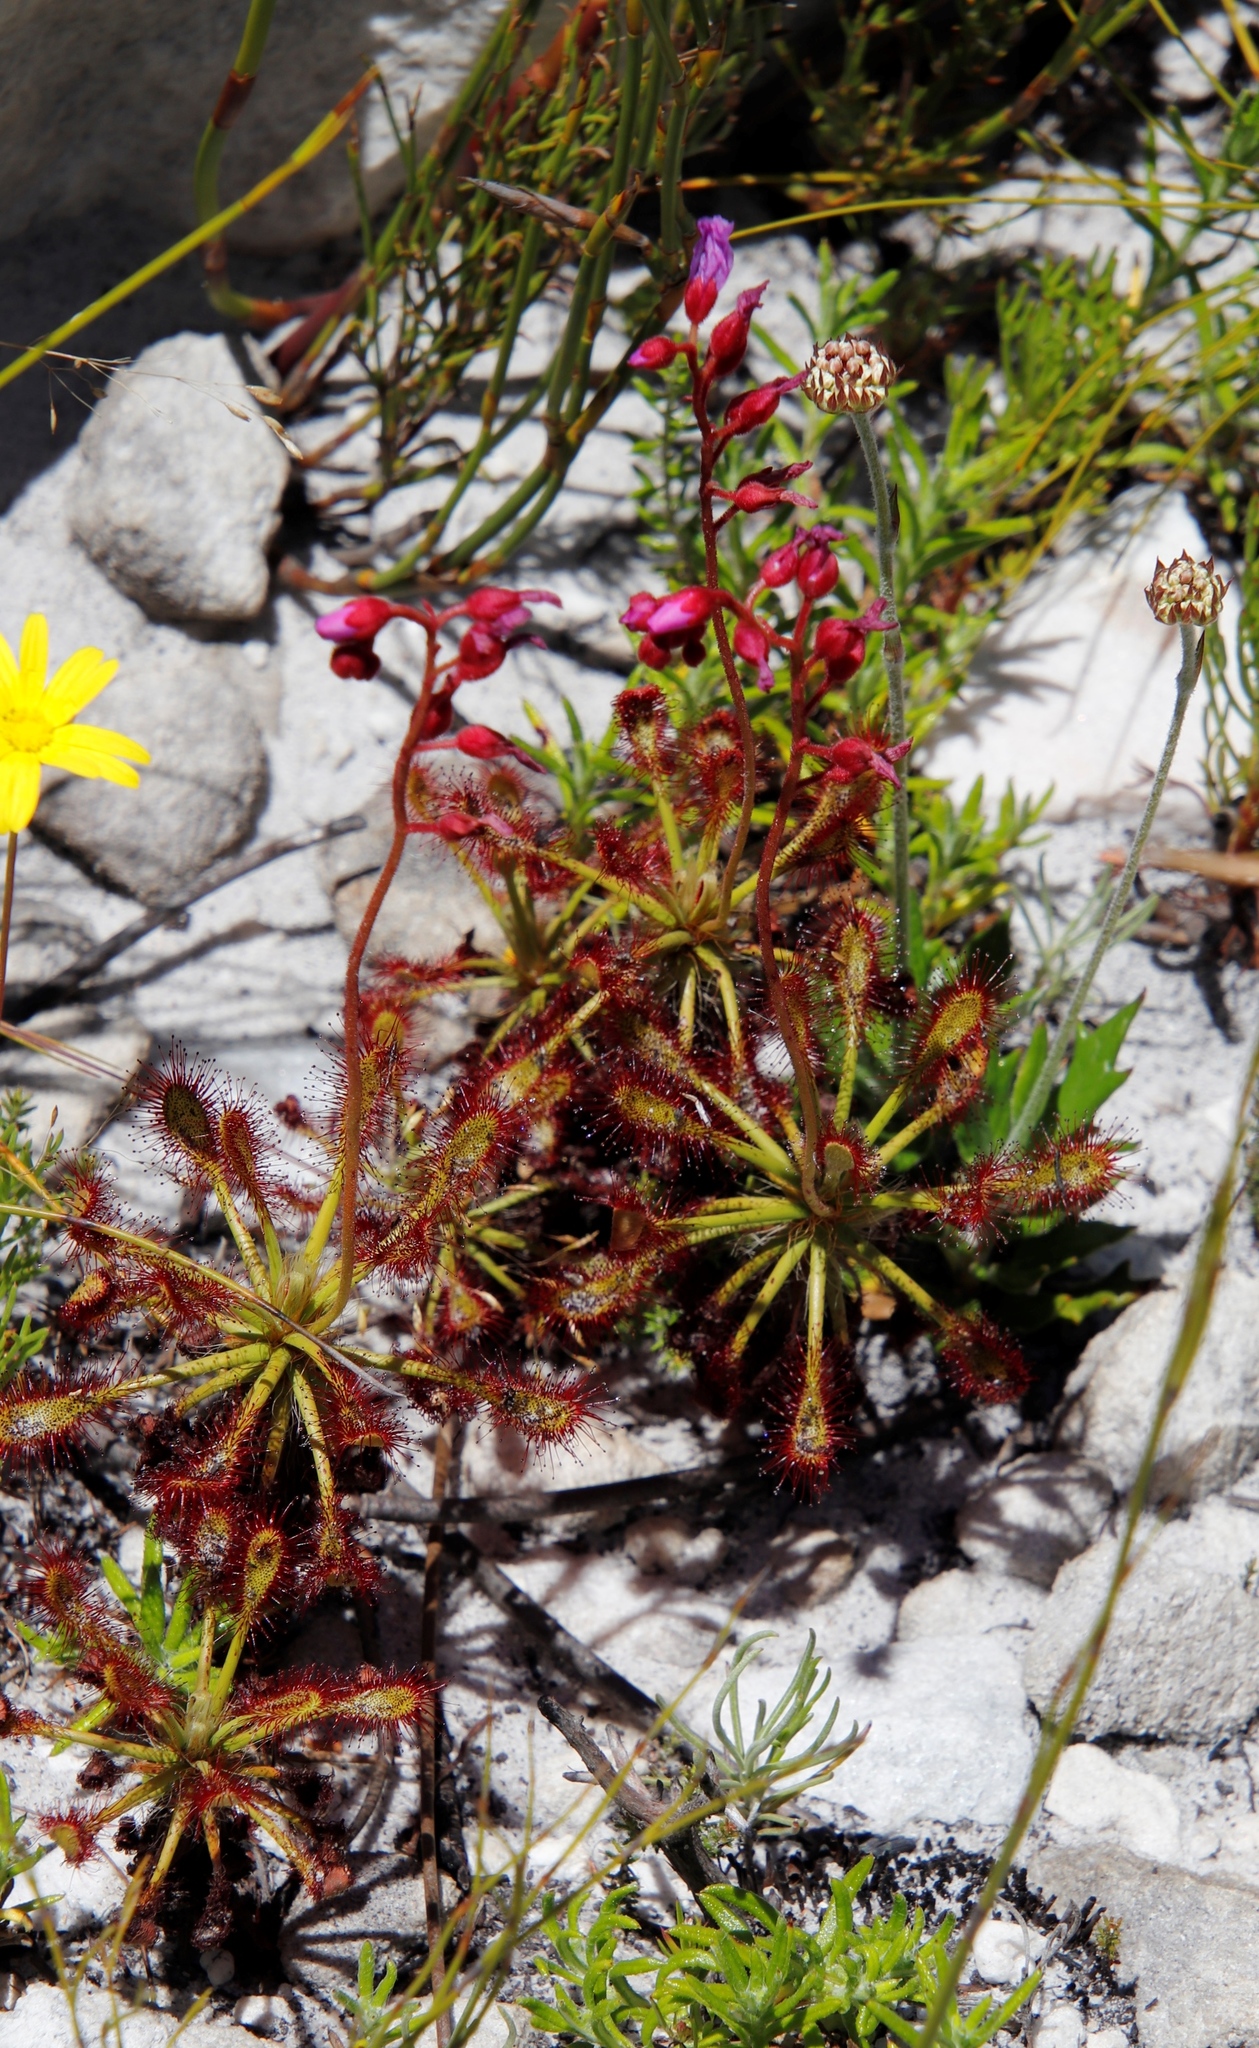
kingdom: Plantae
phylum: Tracheophyta
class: Magnoliopsida
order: Caryophyllales
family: Droseraceae
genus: Drosera
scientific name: Drosera glabripes
